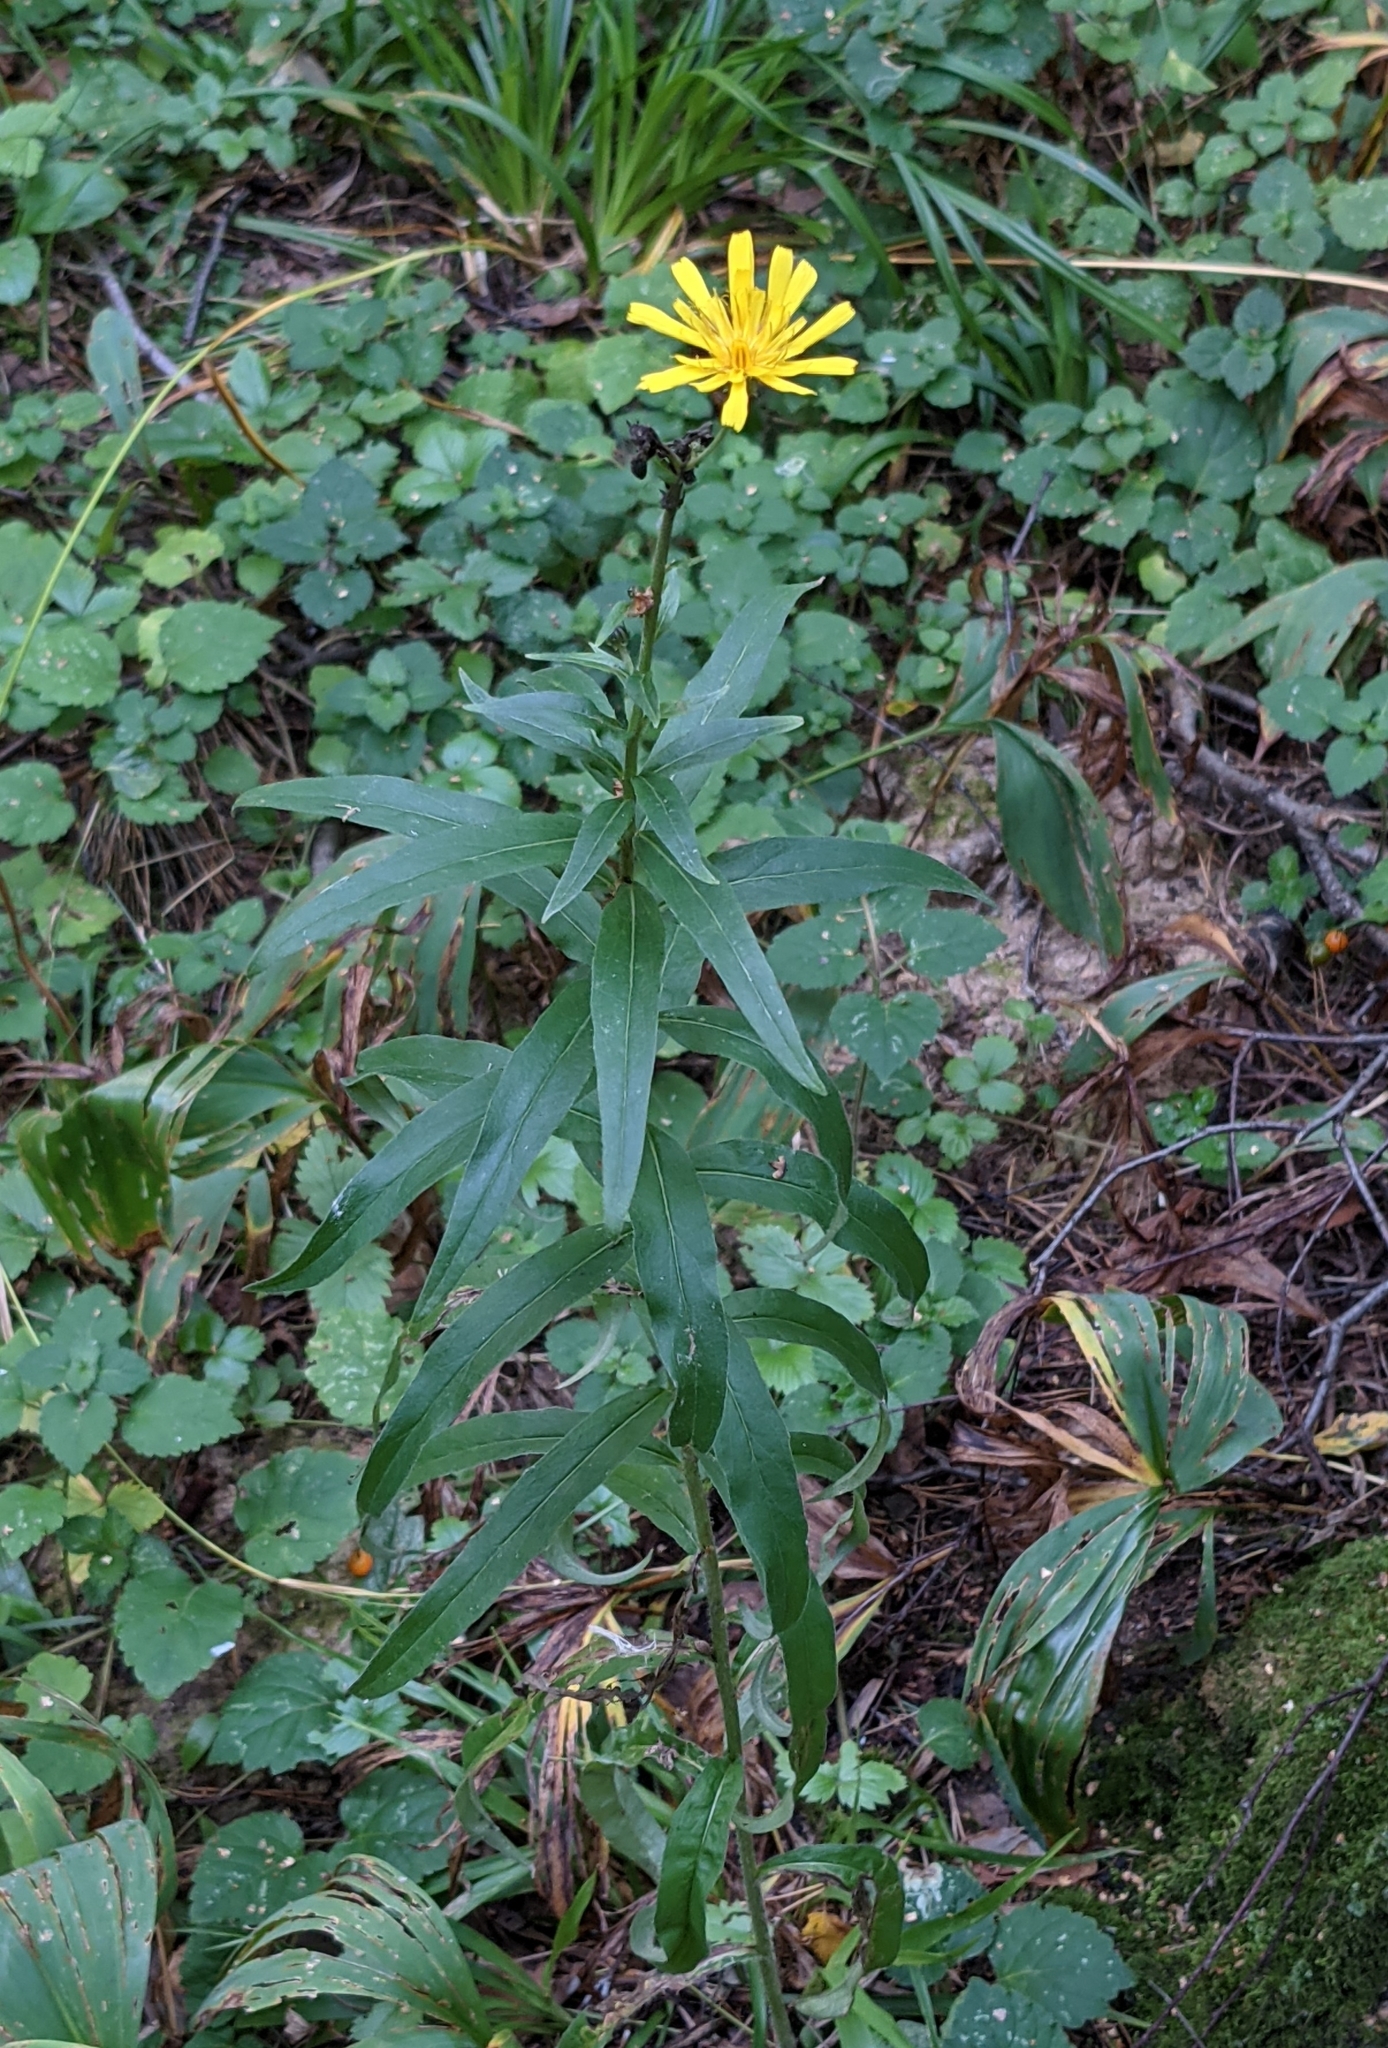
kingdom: Plantae
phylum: Tracheophyta
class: Magnoliopsida
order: Asterales
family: Asteraceae
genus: Hieracium
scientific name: Hieracium umbellatum
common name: Northern hawkweed
